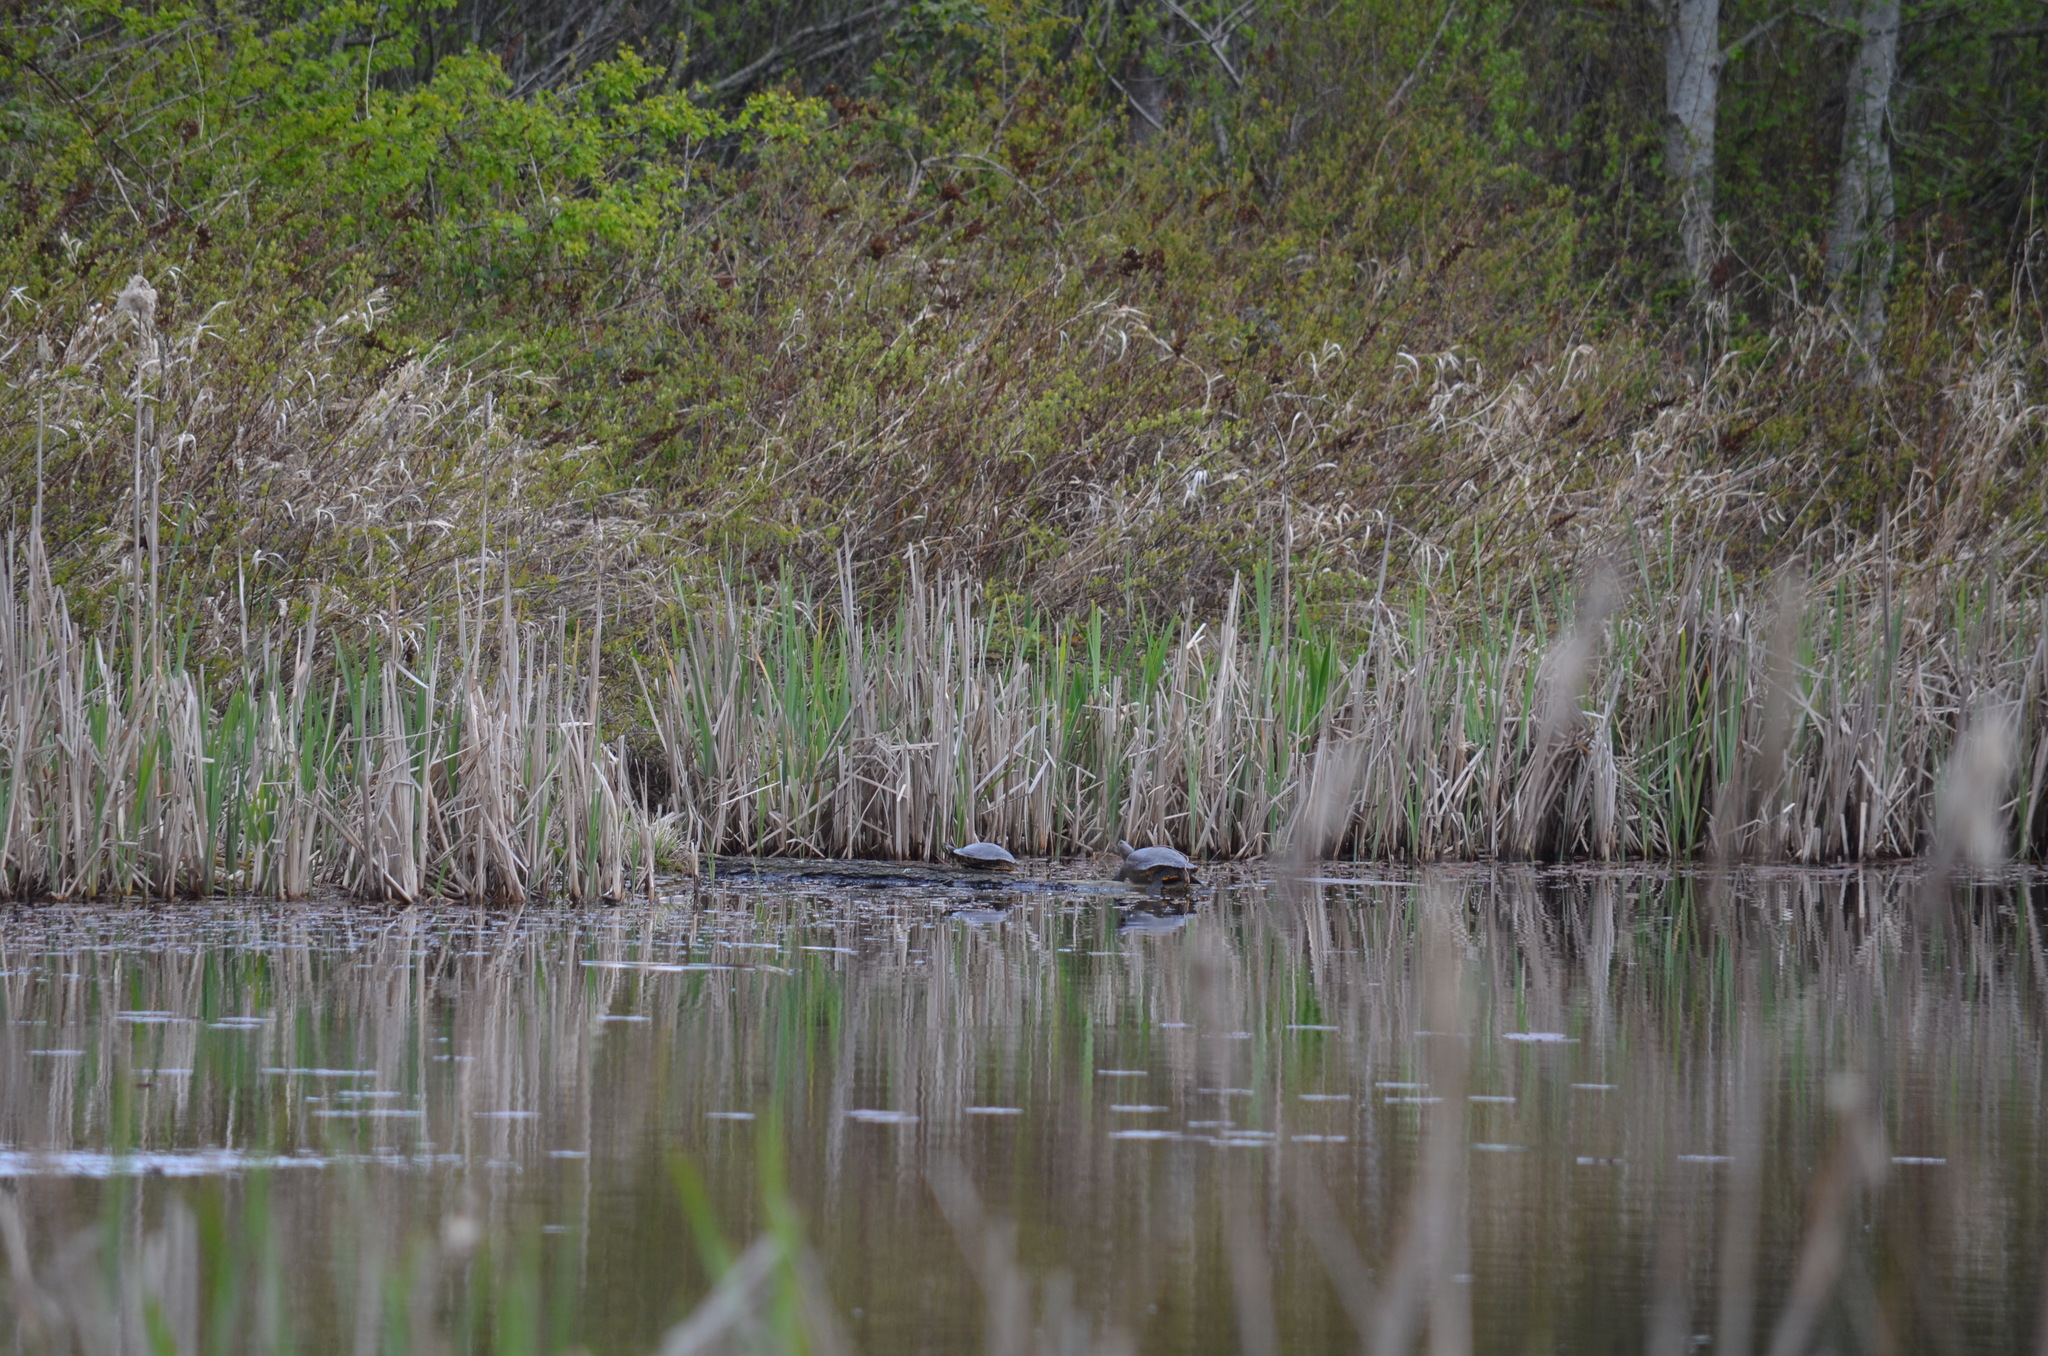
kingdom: Animalia
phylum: Chordata
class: Testudines
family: Emydidae
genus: Trachemys
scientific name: Trachemys scripta
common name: Slider
